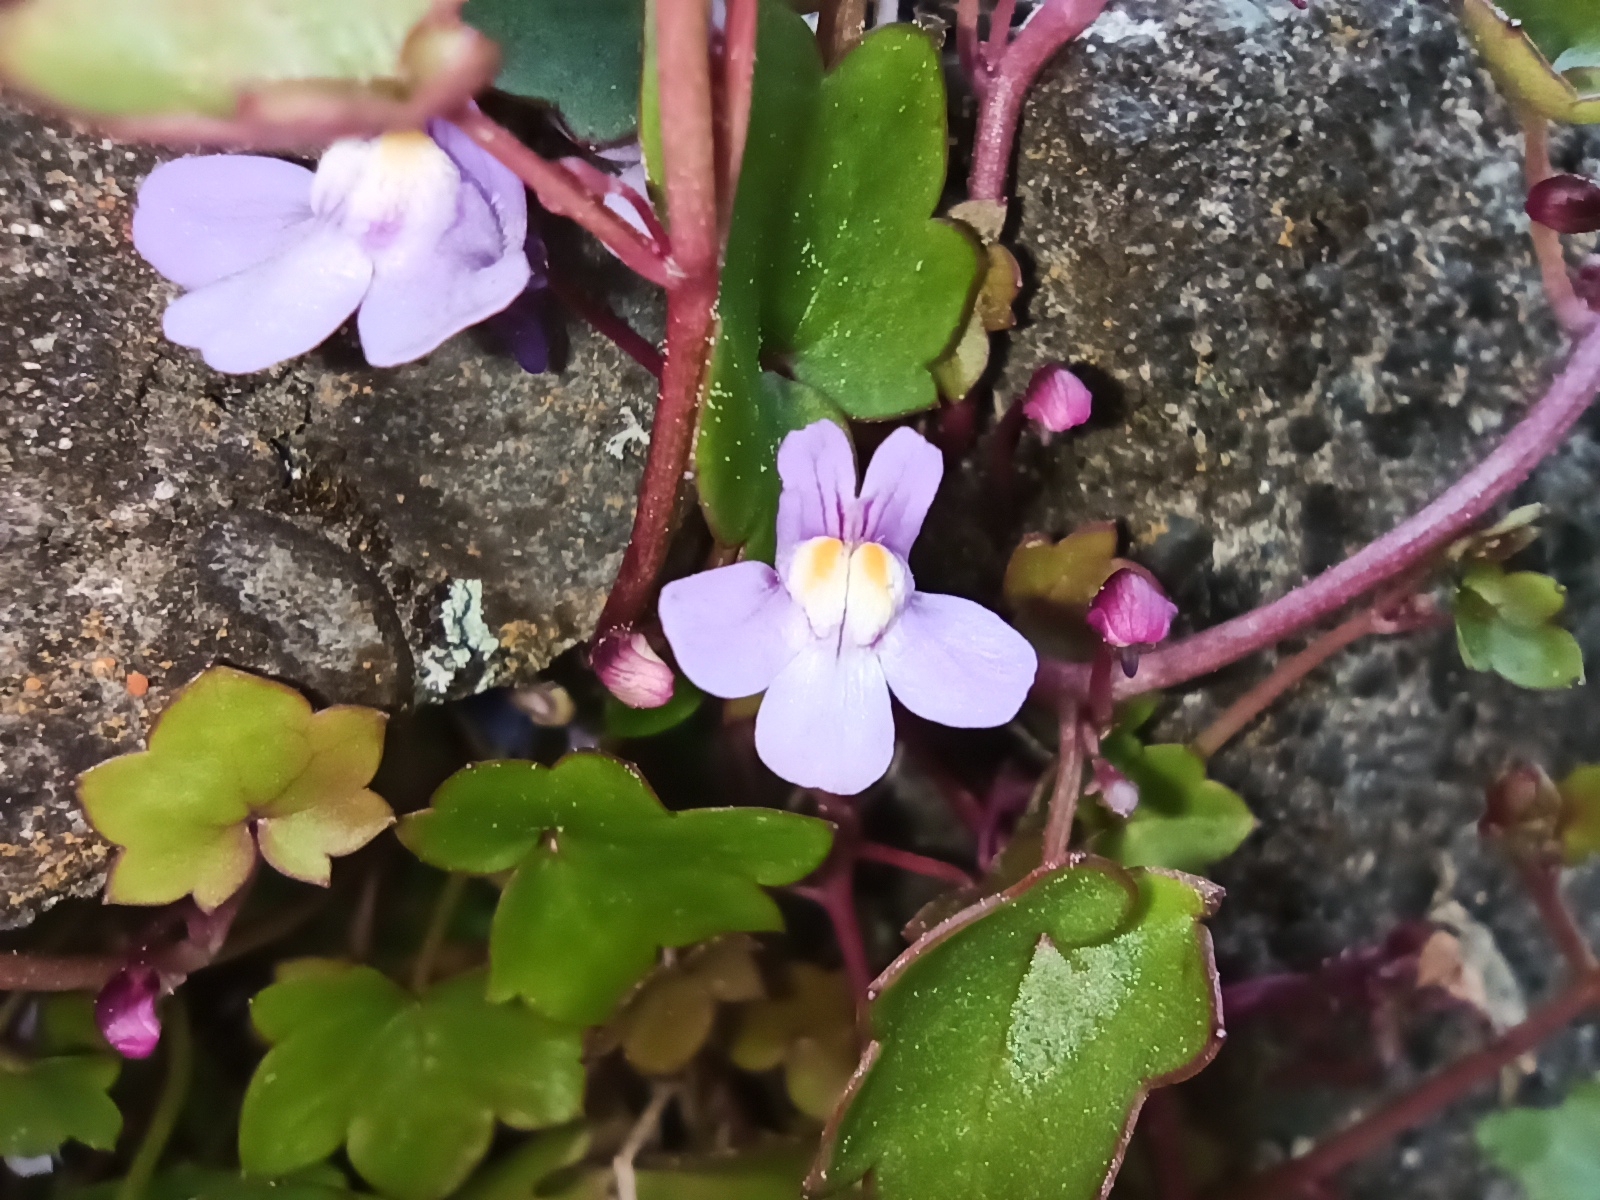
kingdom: Plantae
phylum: Tracheophyta
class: Magnoliopsida
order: Lamiales
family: Plantaginaceae
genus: Cymbalaria
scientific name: Cymbalaria muralis
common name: Ivy-leaved toadflax
